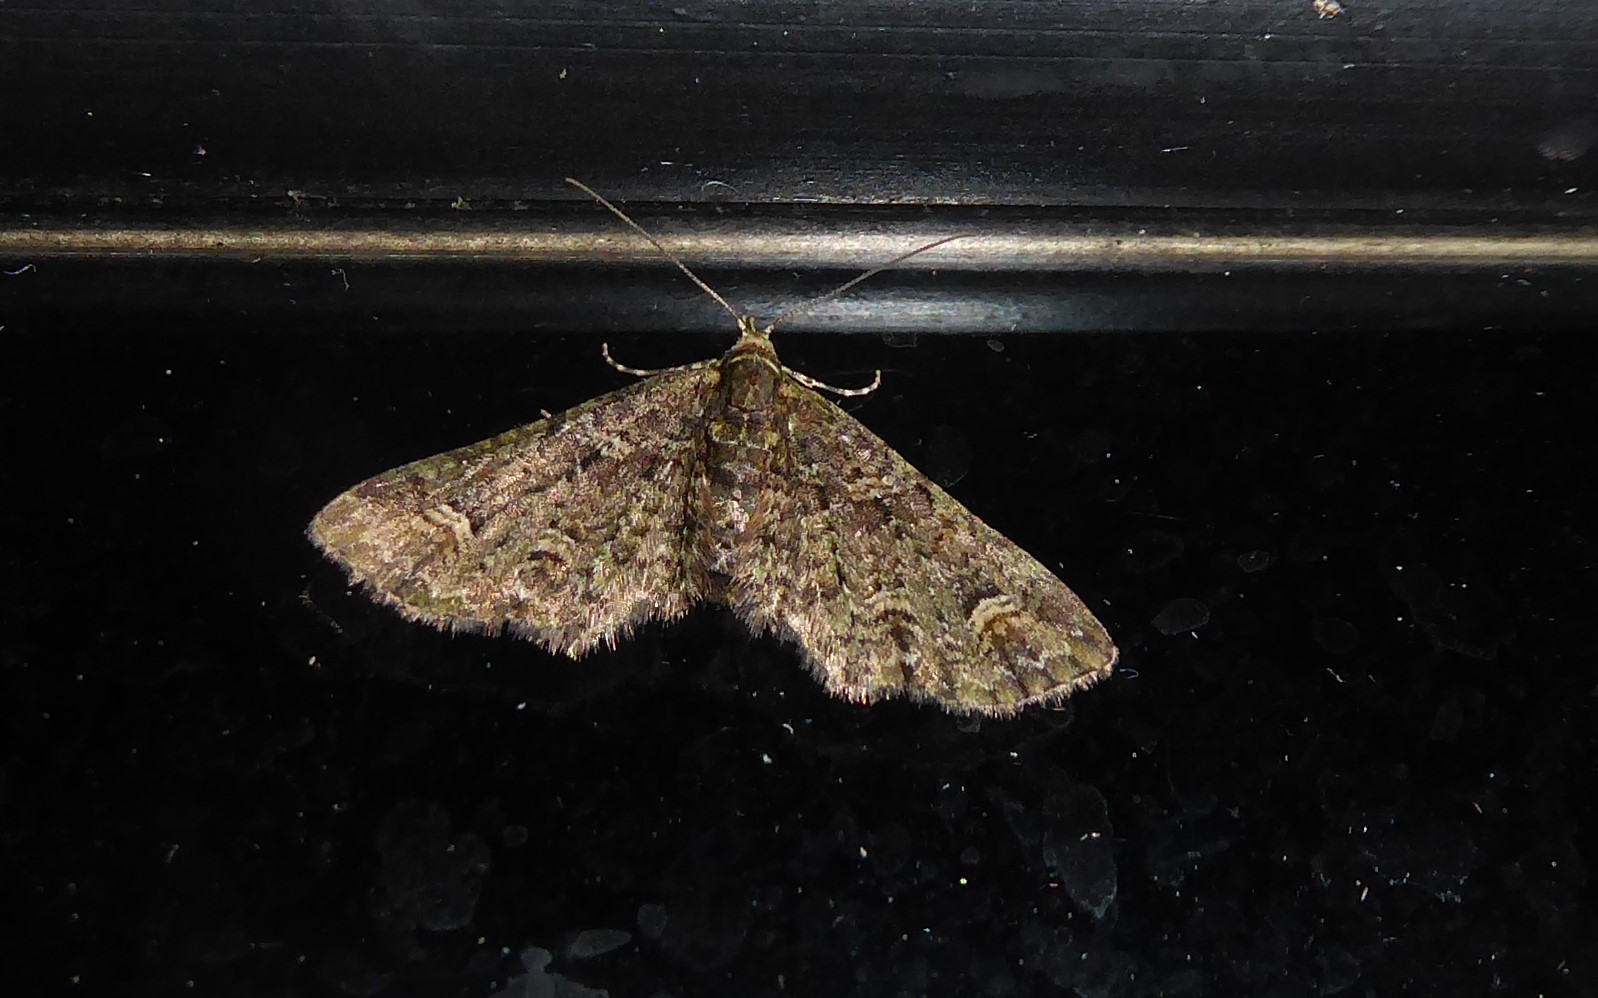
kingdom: Animalia
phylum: Arthropoda
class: Insecta
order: Lepidoptera
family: Geometridae
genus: Pasiphilodes
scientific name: Pasiphilodes testulata
